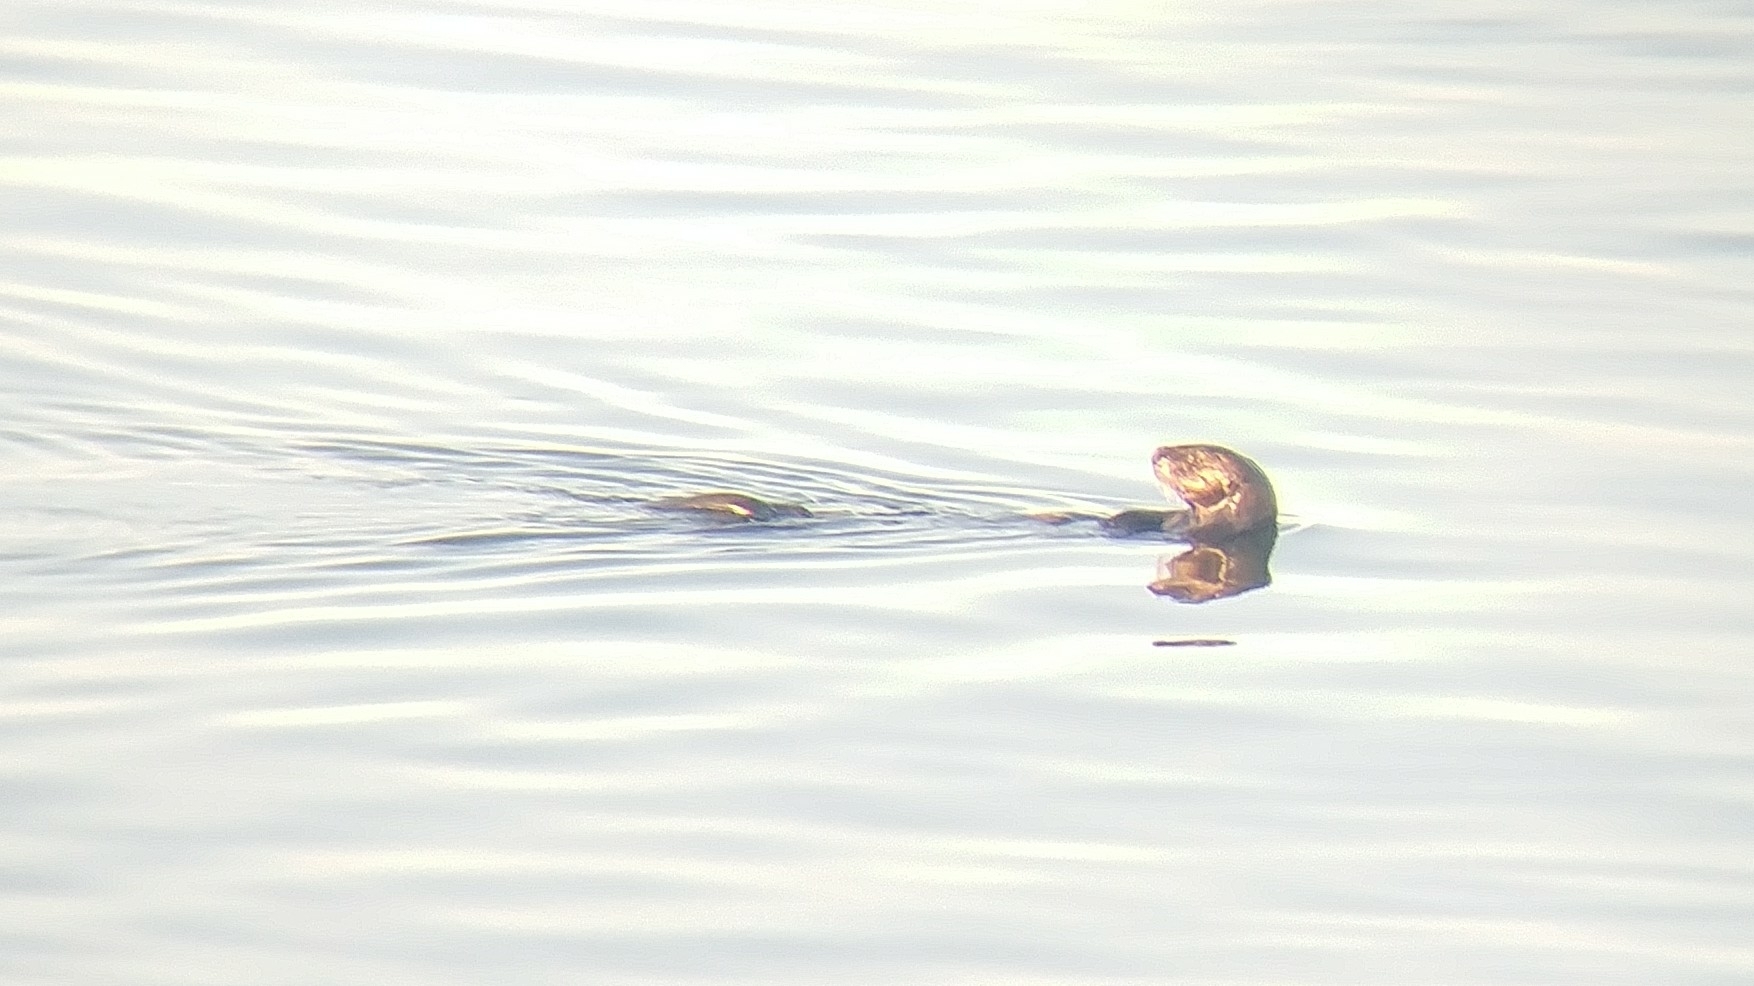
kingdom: Animalia
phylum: Chordata
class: Mammalia
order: Carnivora
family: Mustelidae
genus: Enhydra
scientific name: Enhydra lutris
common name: Sea otter
